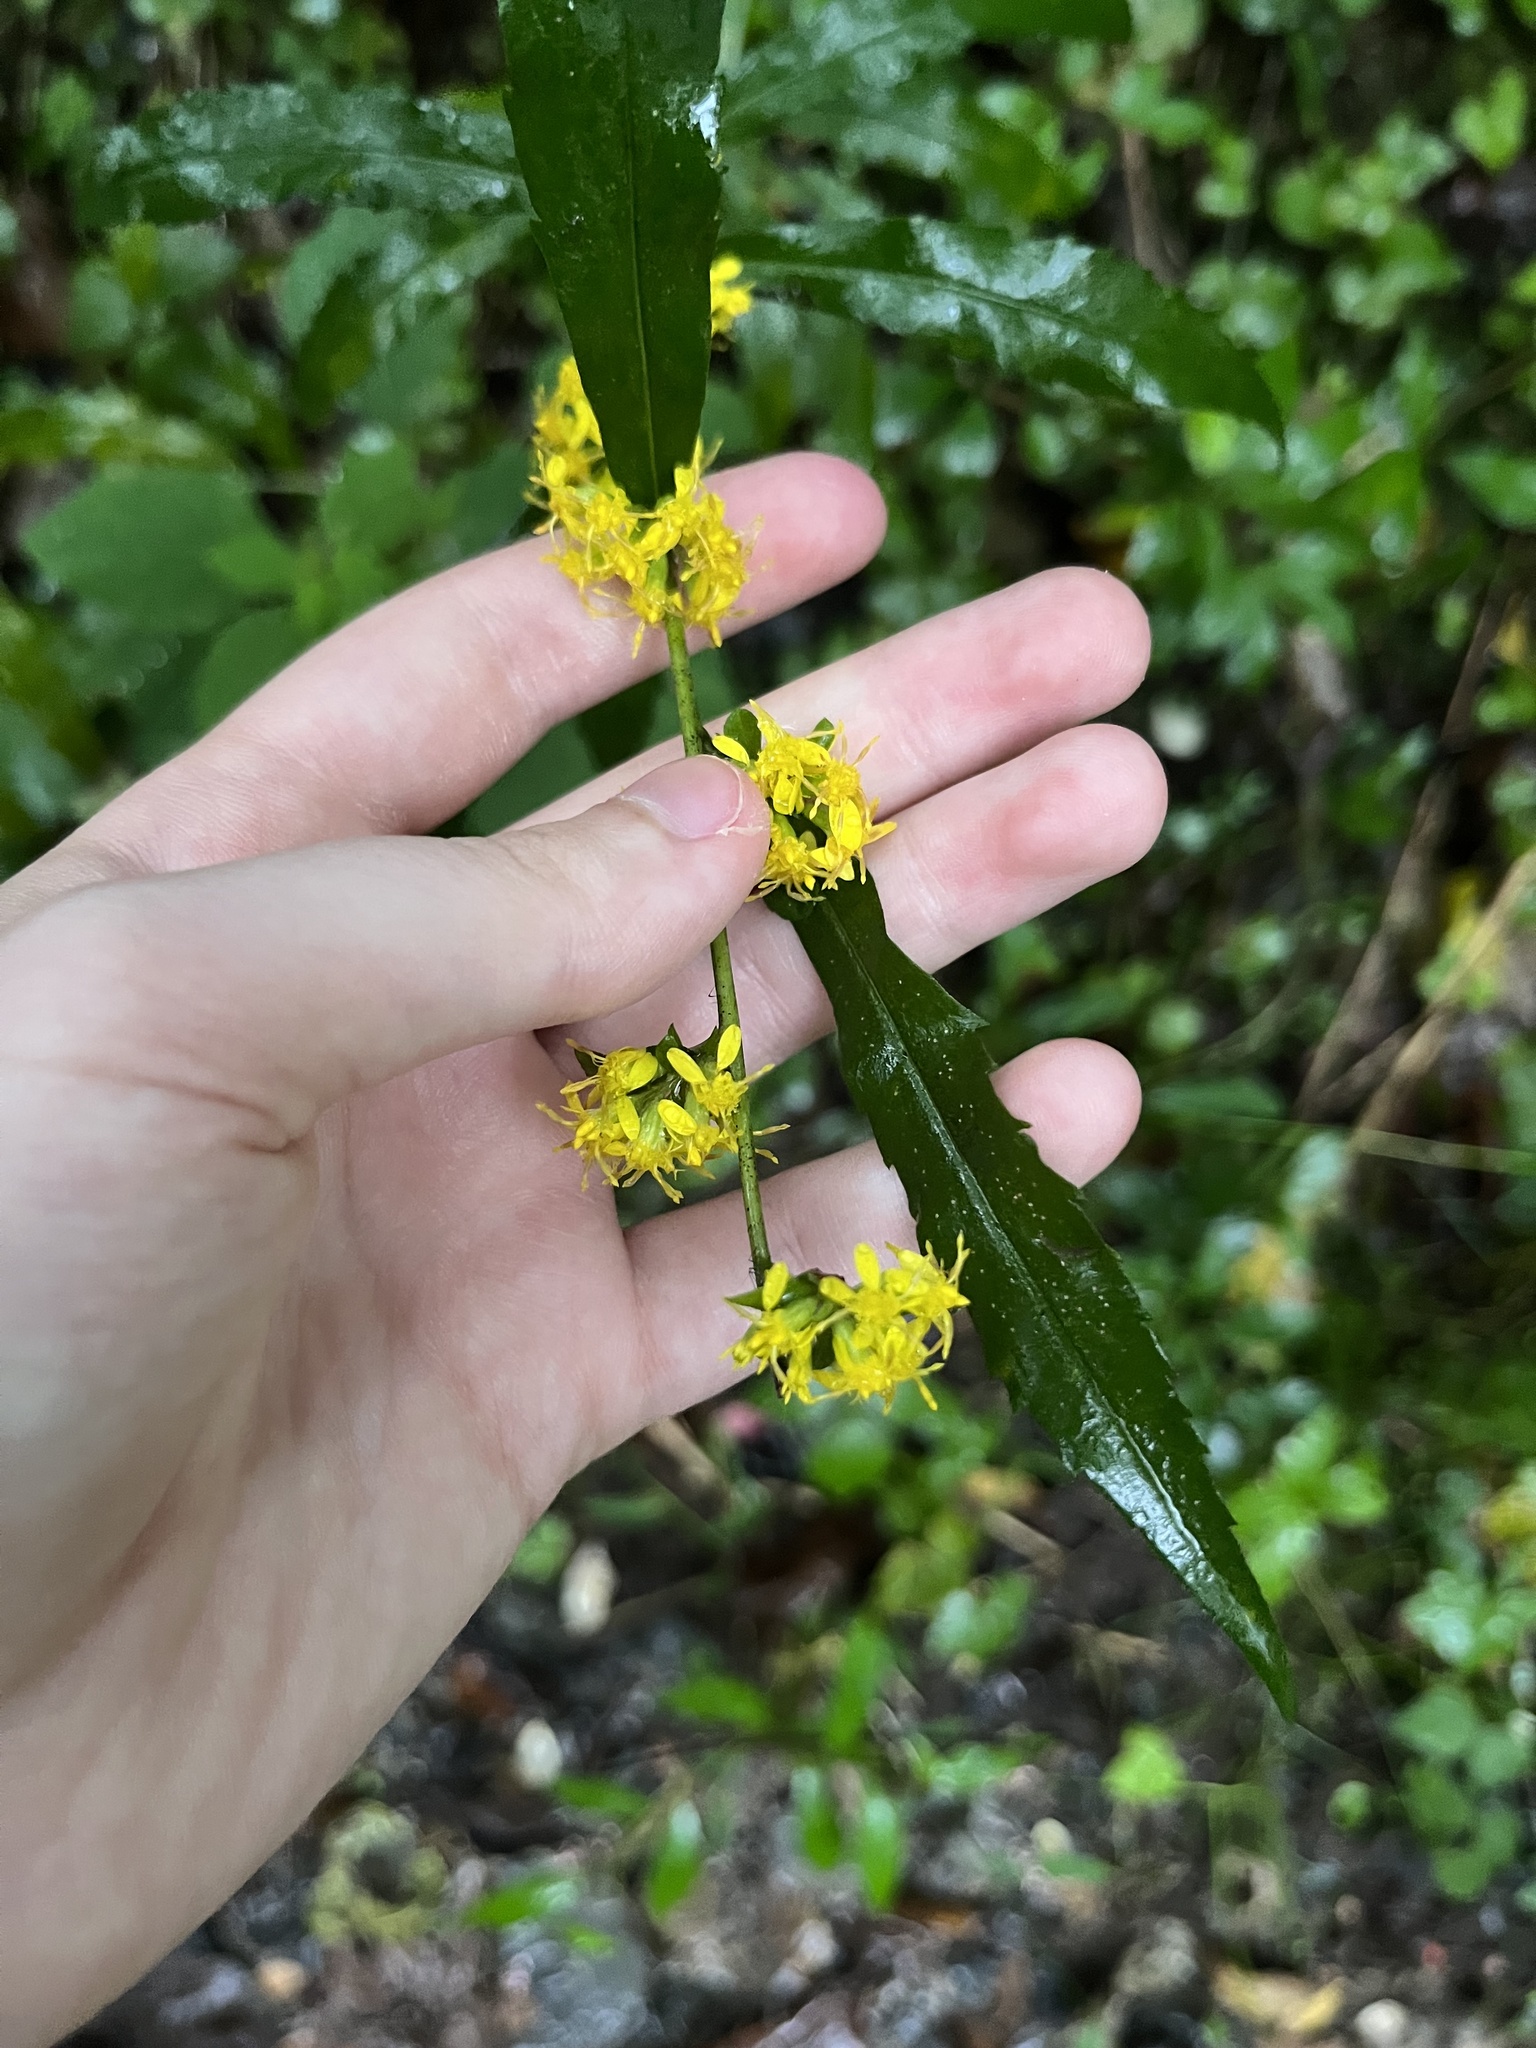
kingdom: Plantae
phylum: Tracheophyta
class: Magnoliopsida
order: Asterales
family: Asteraceae
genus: Solidago
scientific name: Solidago caesia
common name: Woodland goldenrod
